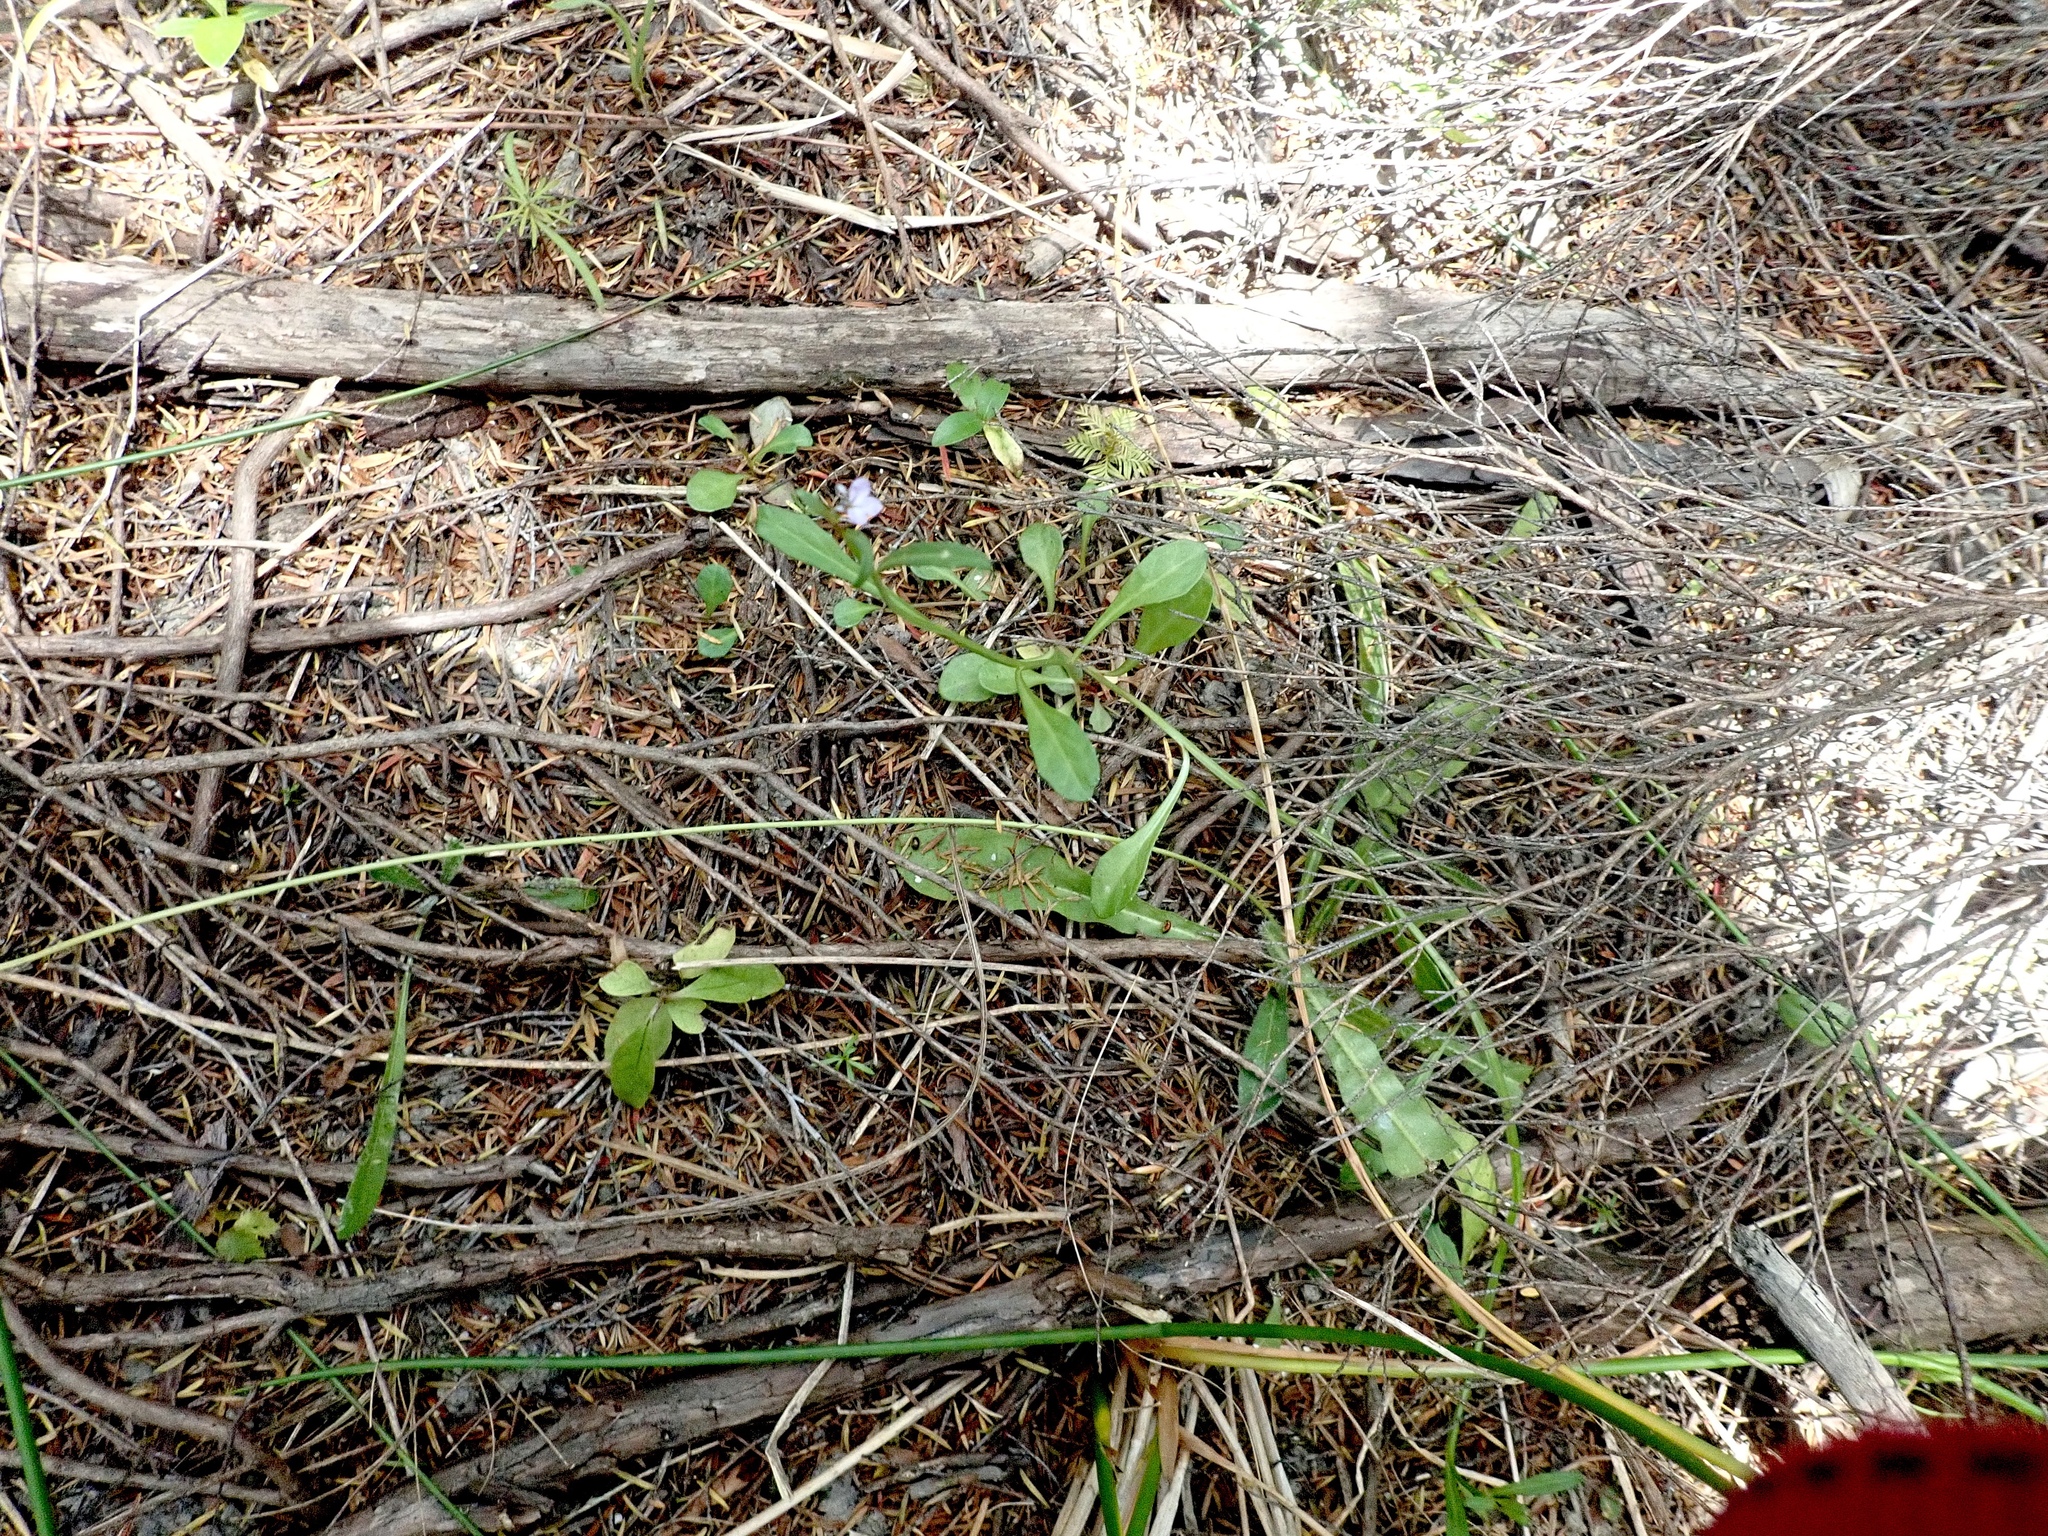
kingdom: Plantae
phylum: Tracheophyta
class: Magnoliopsida
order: Asterales
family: Campanulaceae
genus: Lobelia
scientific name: Lobelia anceps
